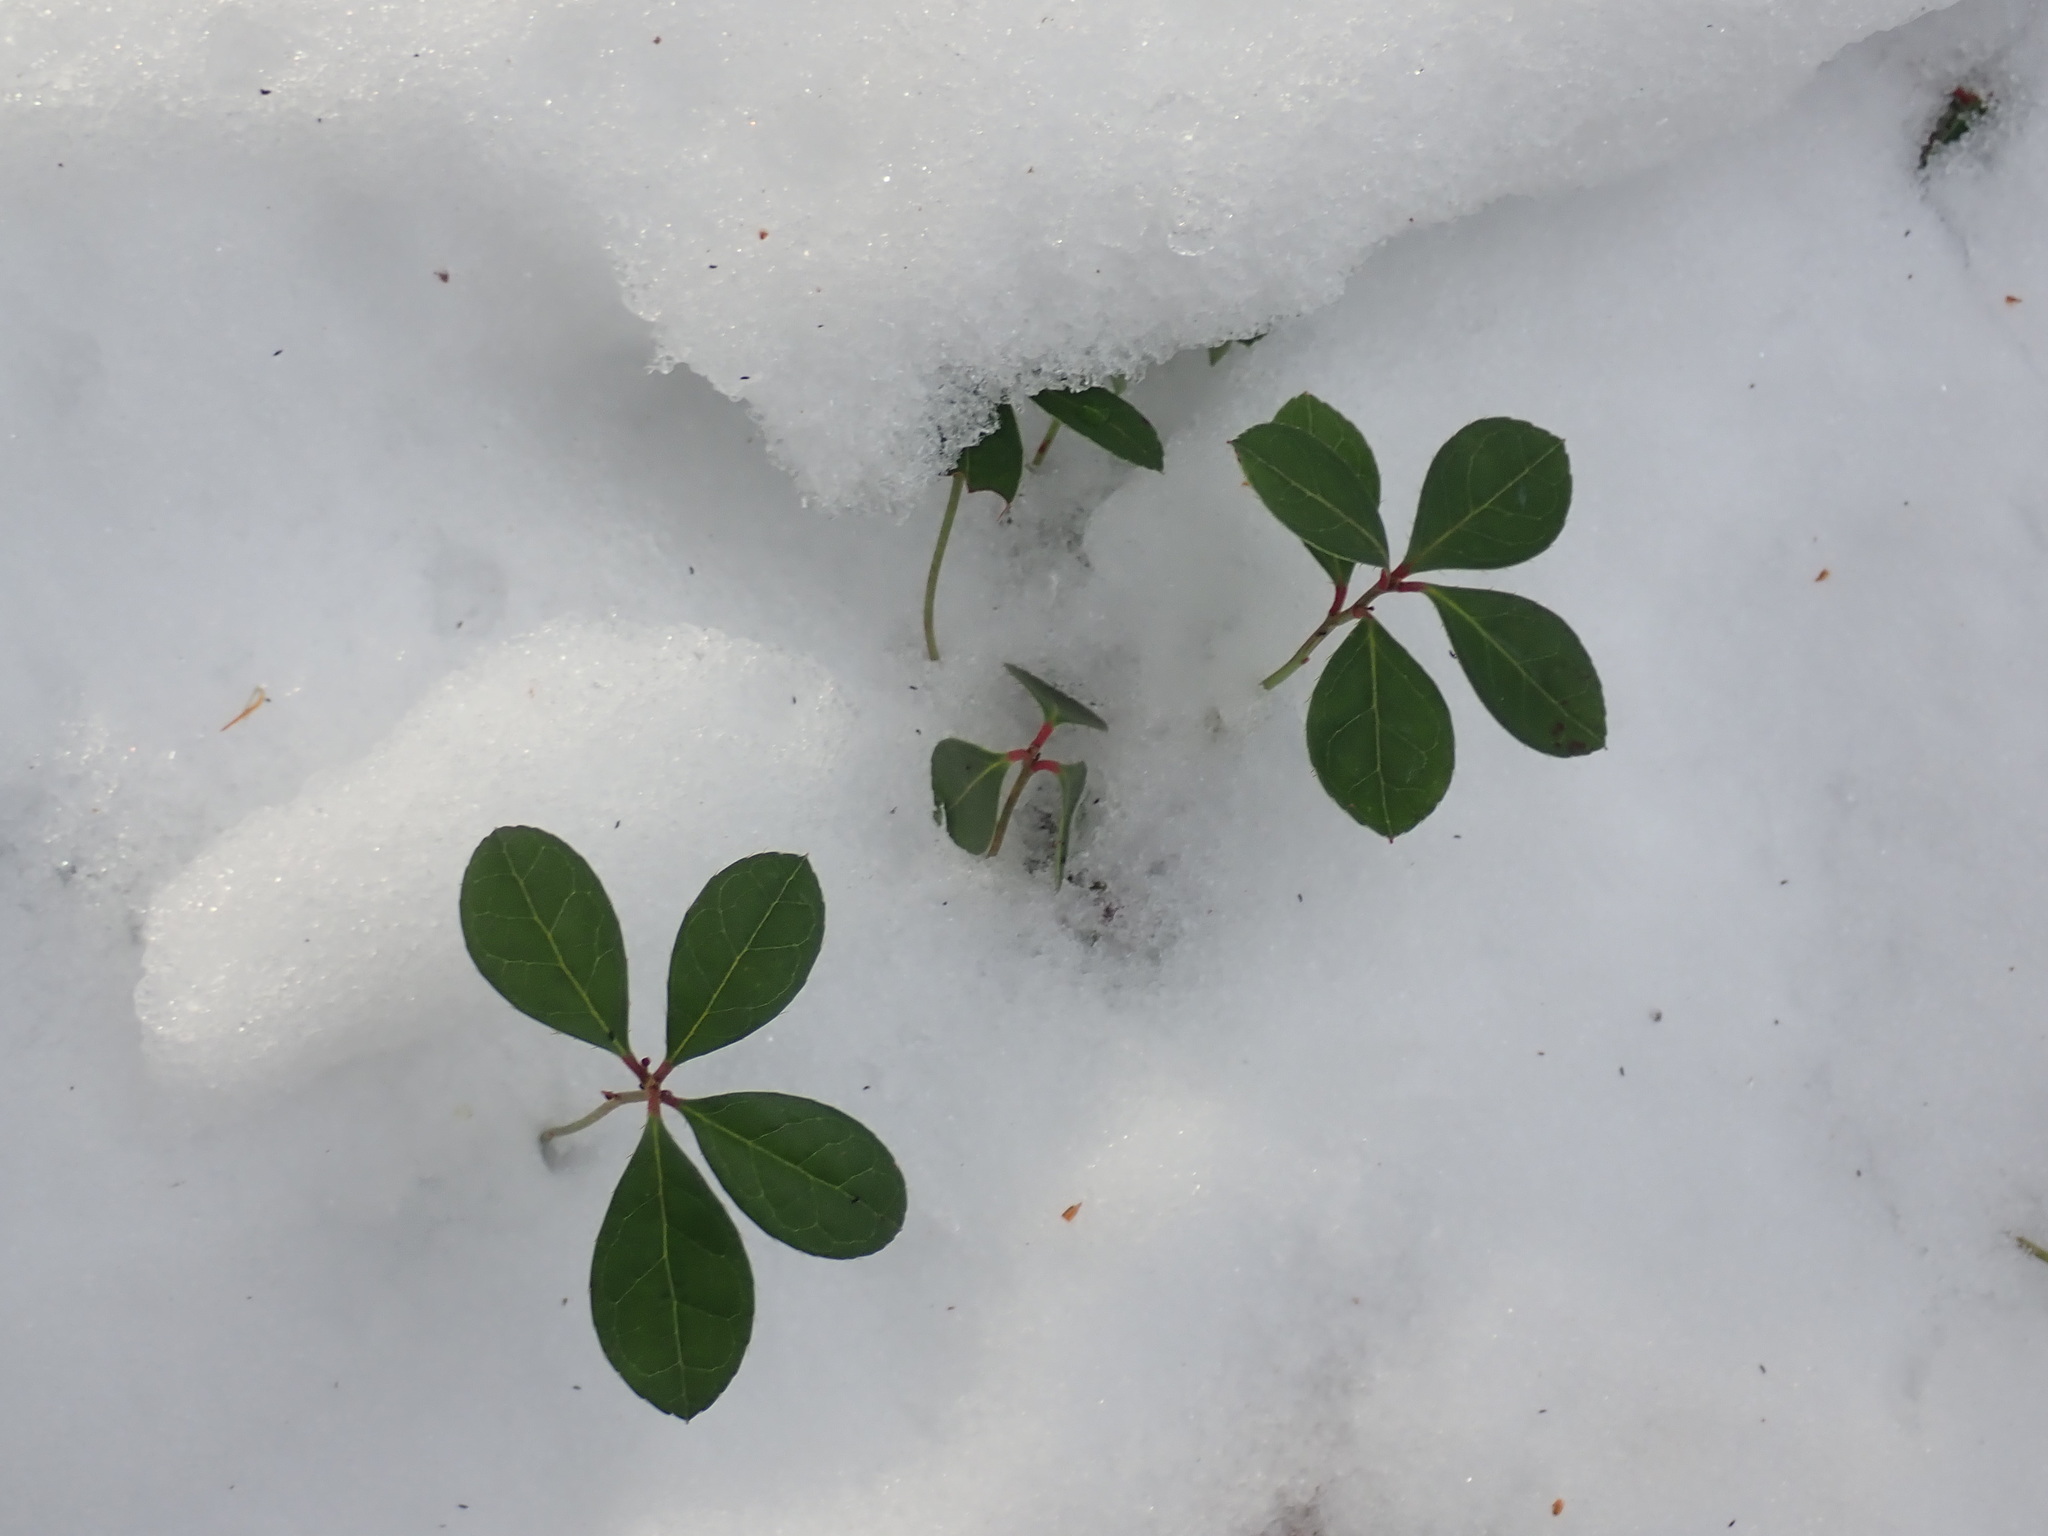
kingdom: Plantae
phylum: Tracheophyta
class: Magnoliopsida
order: Ericales
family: Ericaceae
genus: Gaultheria
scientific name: Gaultheria procumbens
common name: Checkerberry
